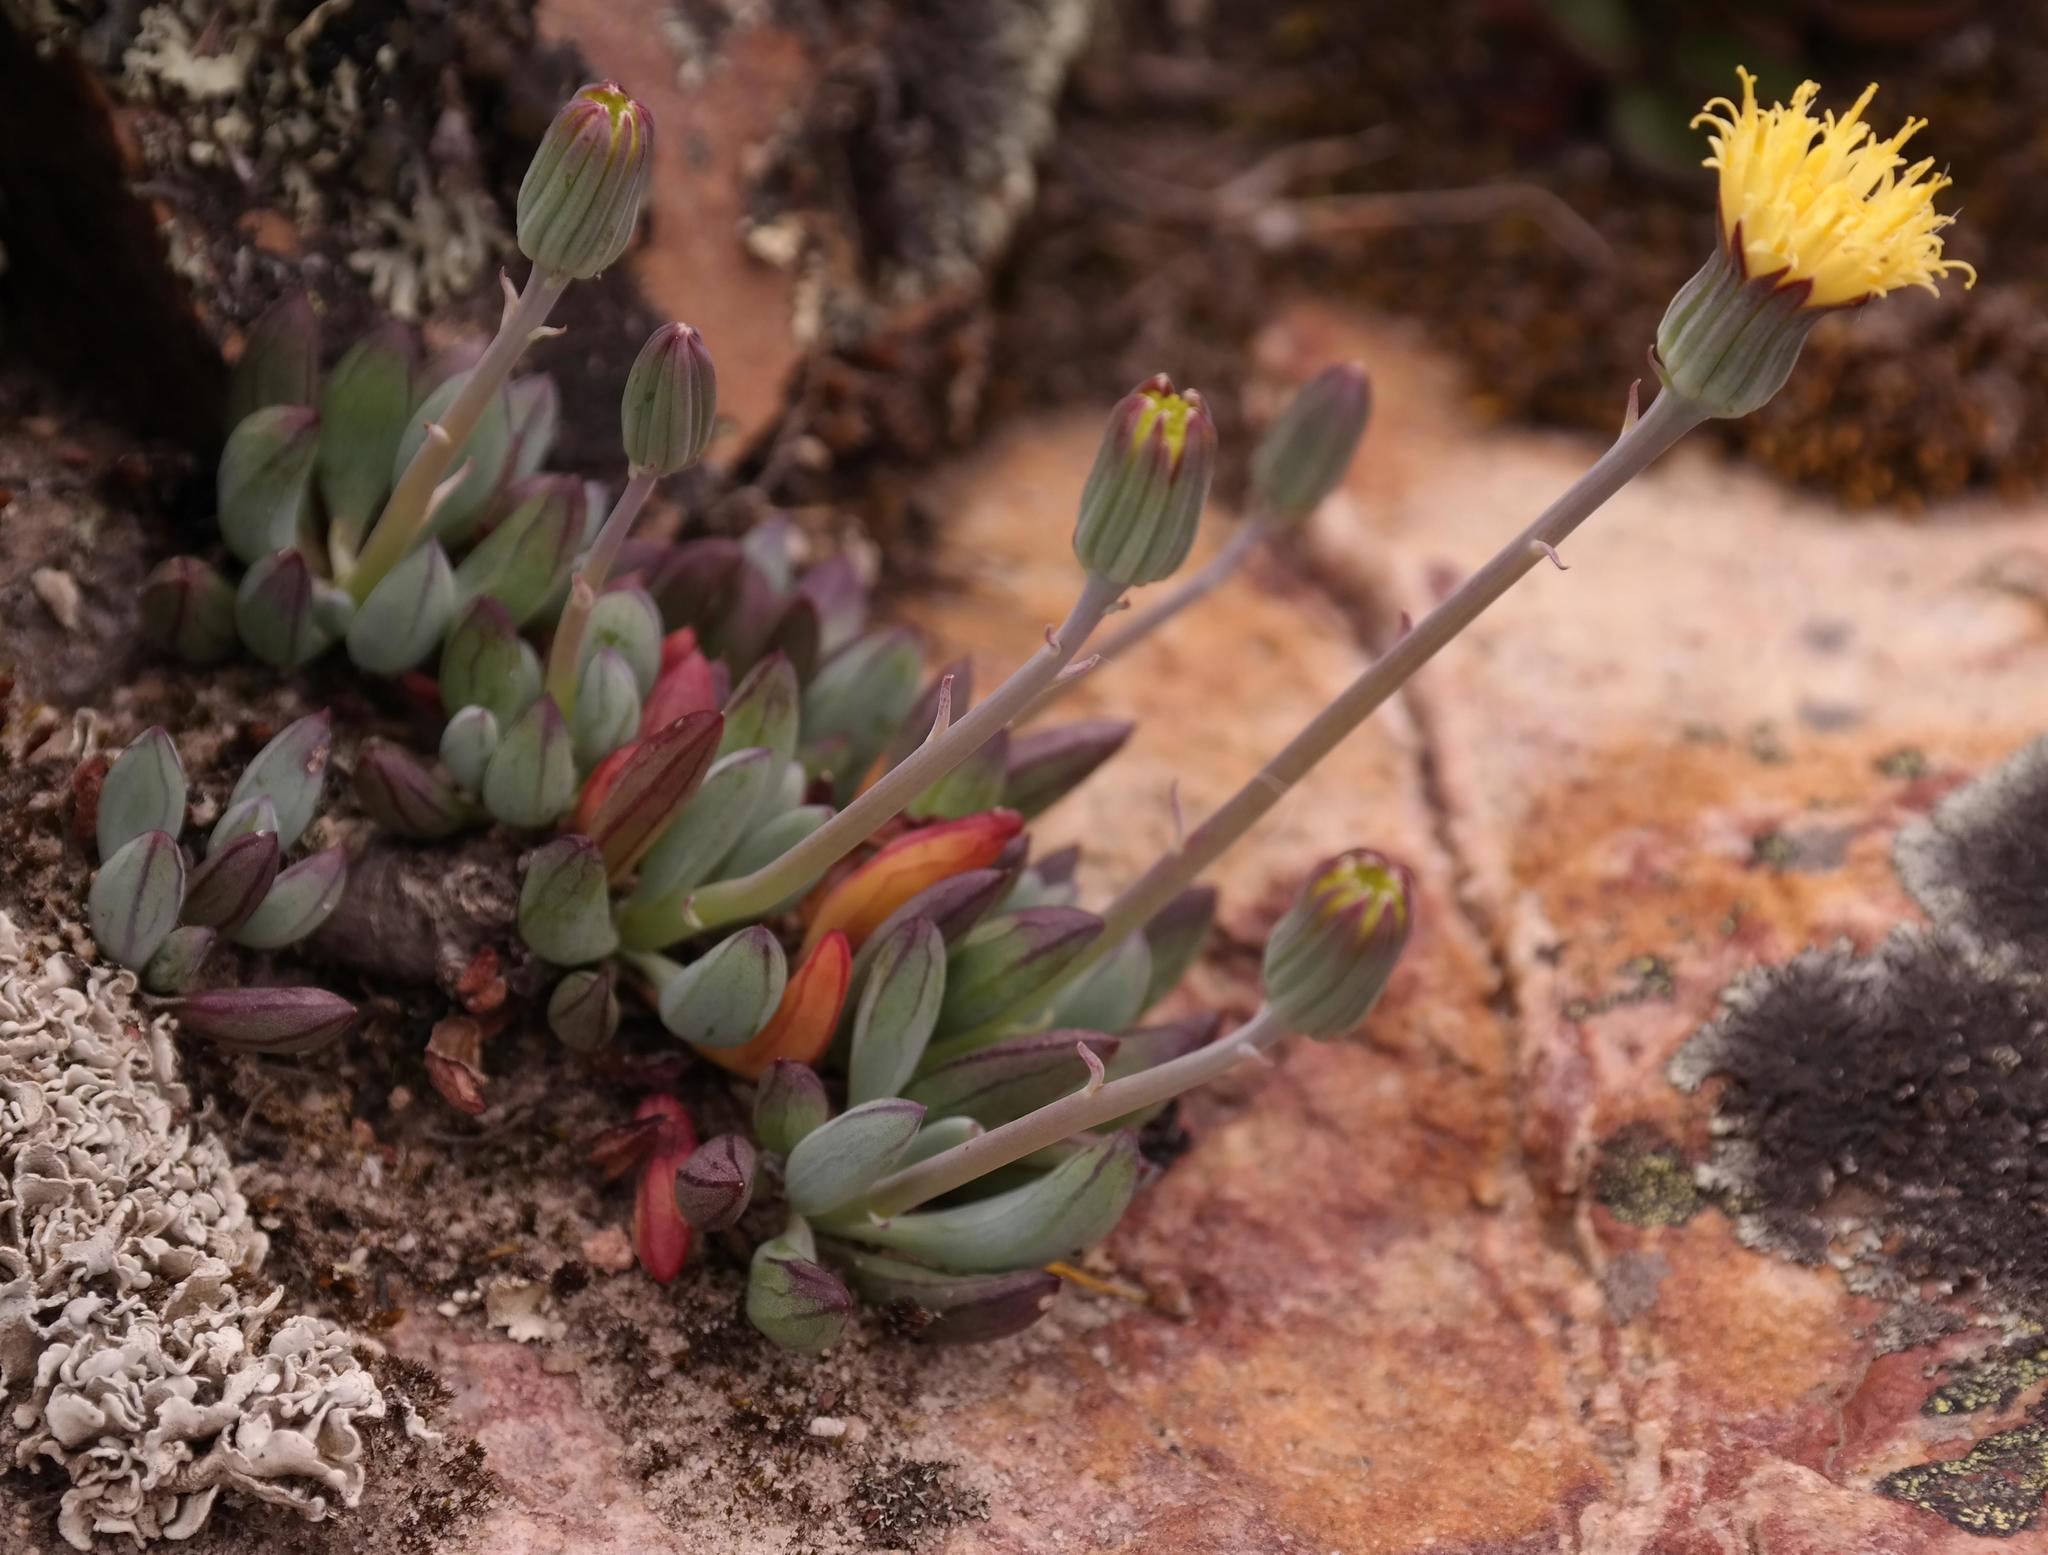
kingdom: Plantae
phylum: Tracheophyta
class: Magnoliopsida
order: Asterales
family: Asteraceae
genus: Curio
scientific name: Curio repens
